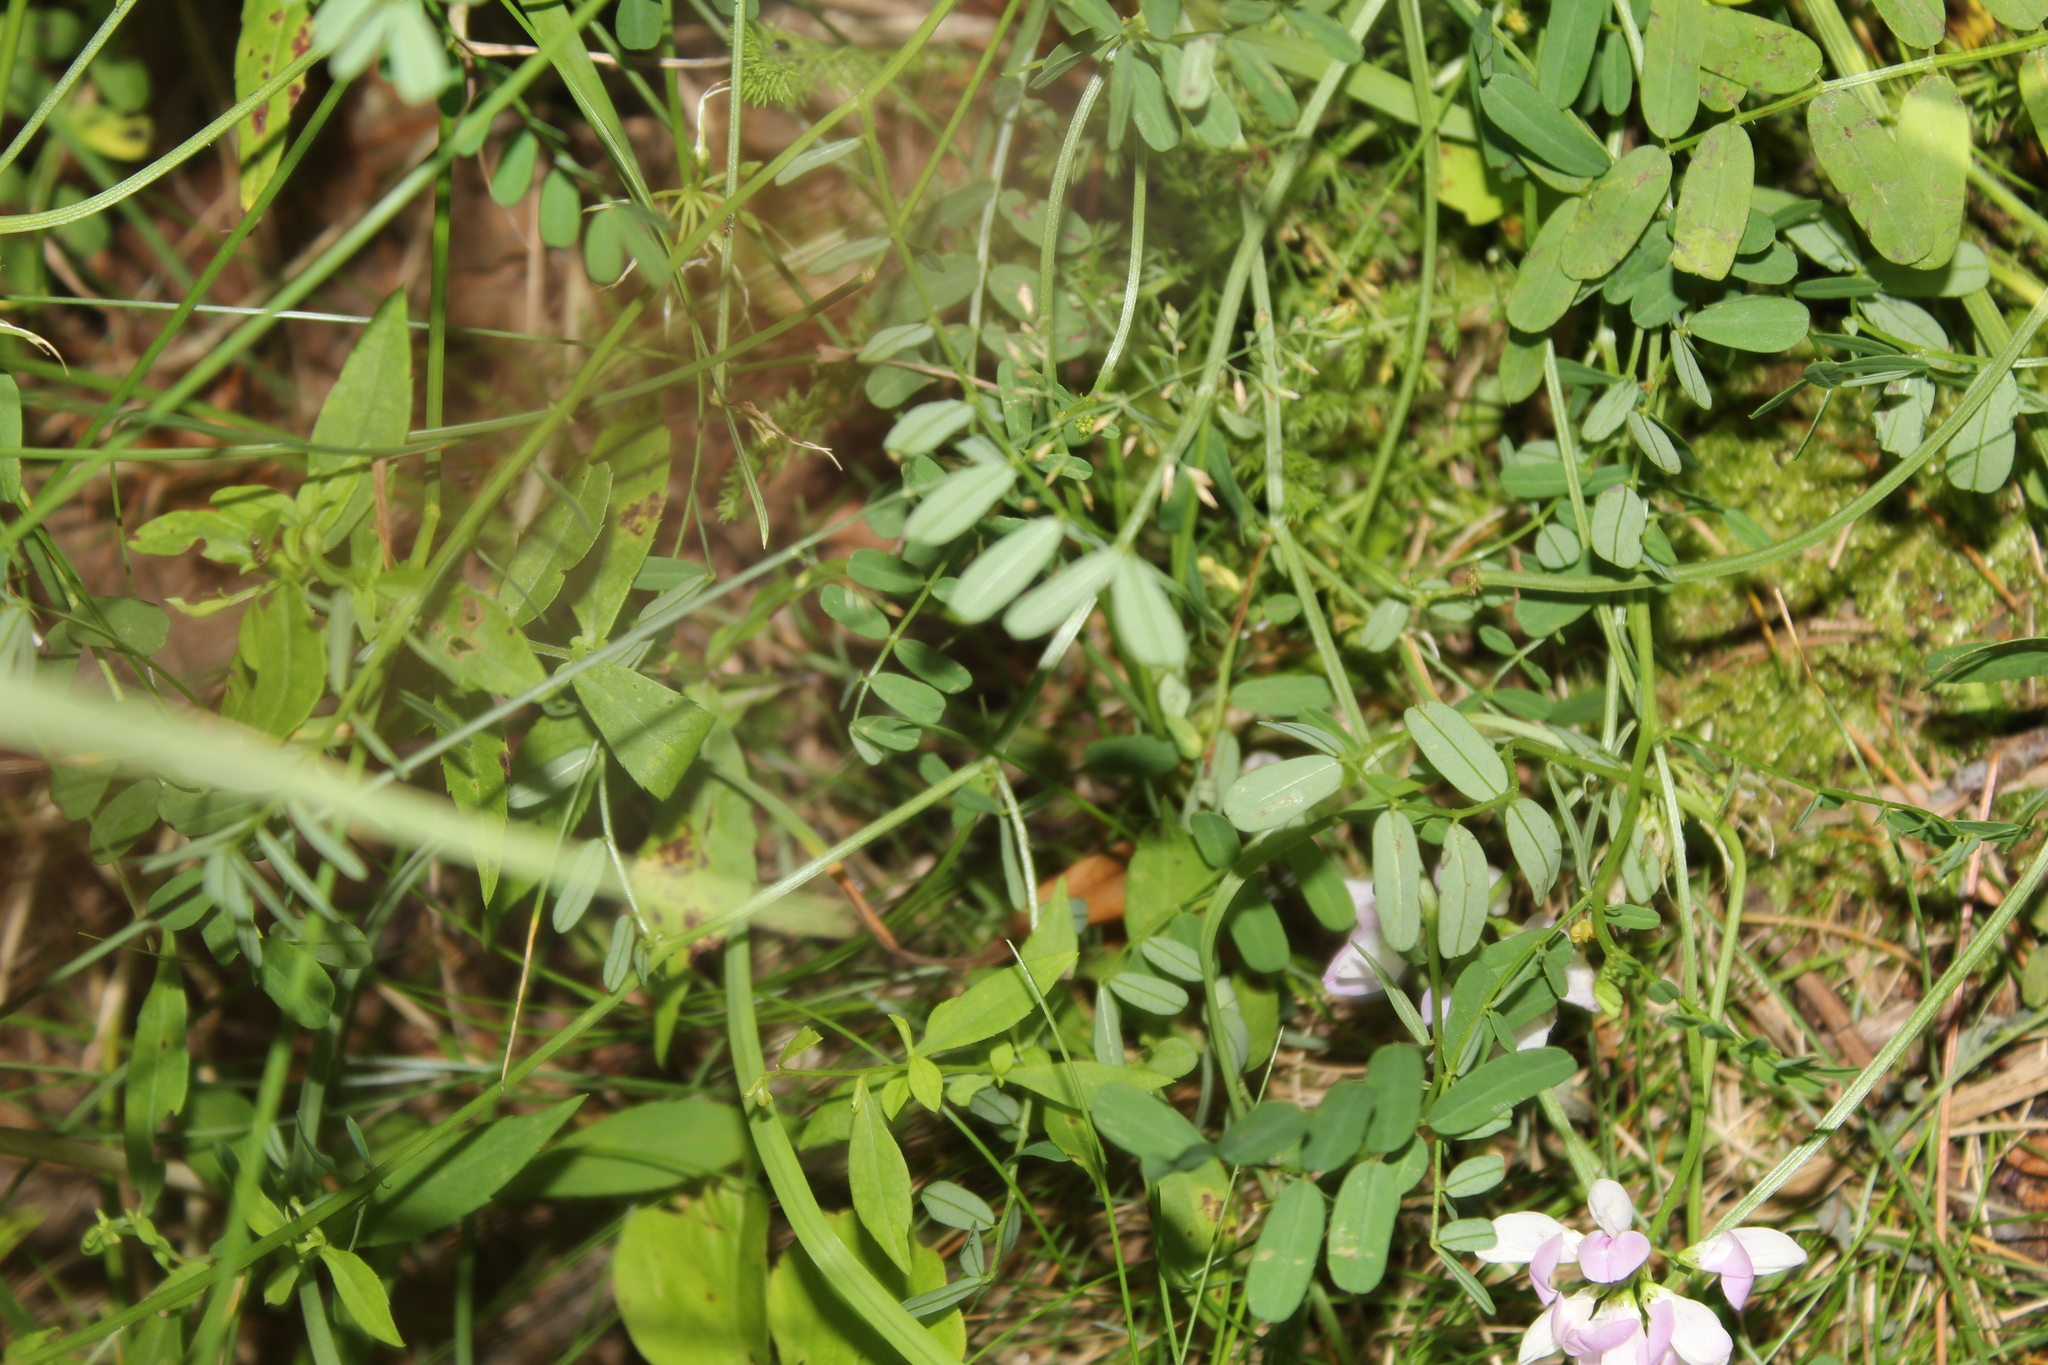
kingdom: Plantae
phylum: Tracheophyta
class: Magnoliopsida
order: Fabales
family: Fabaceae
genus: Coronilla
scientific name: Coronilla varia
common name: Crownvetch
